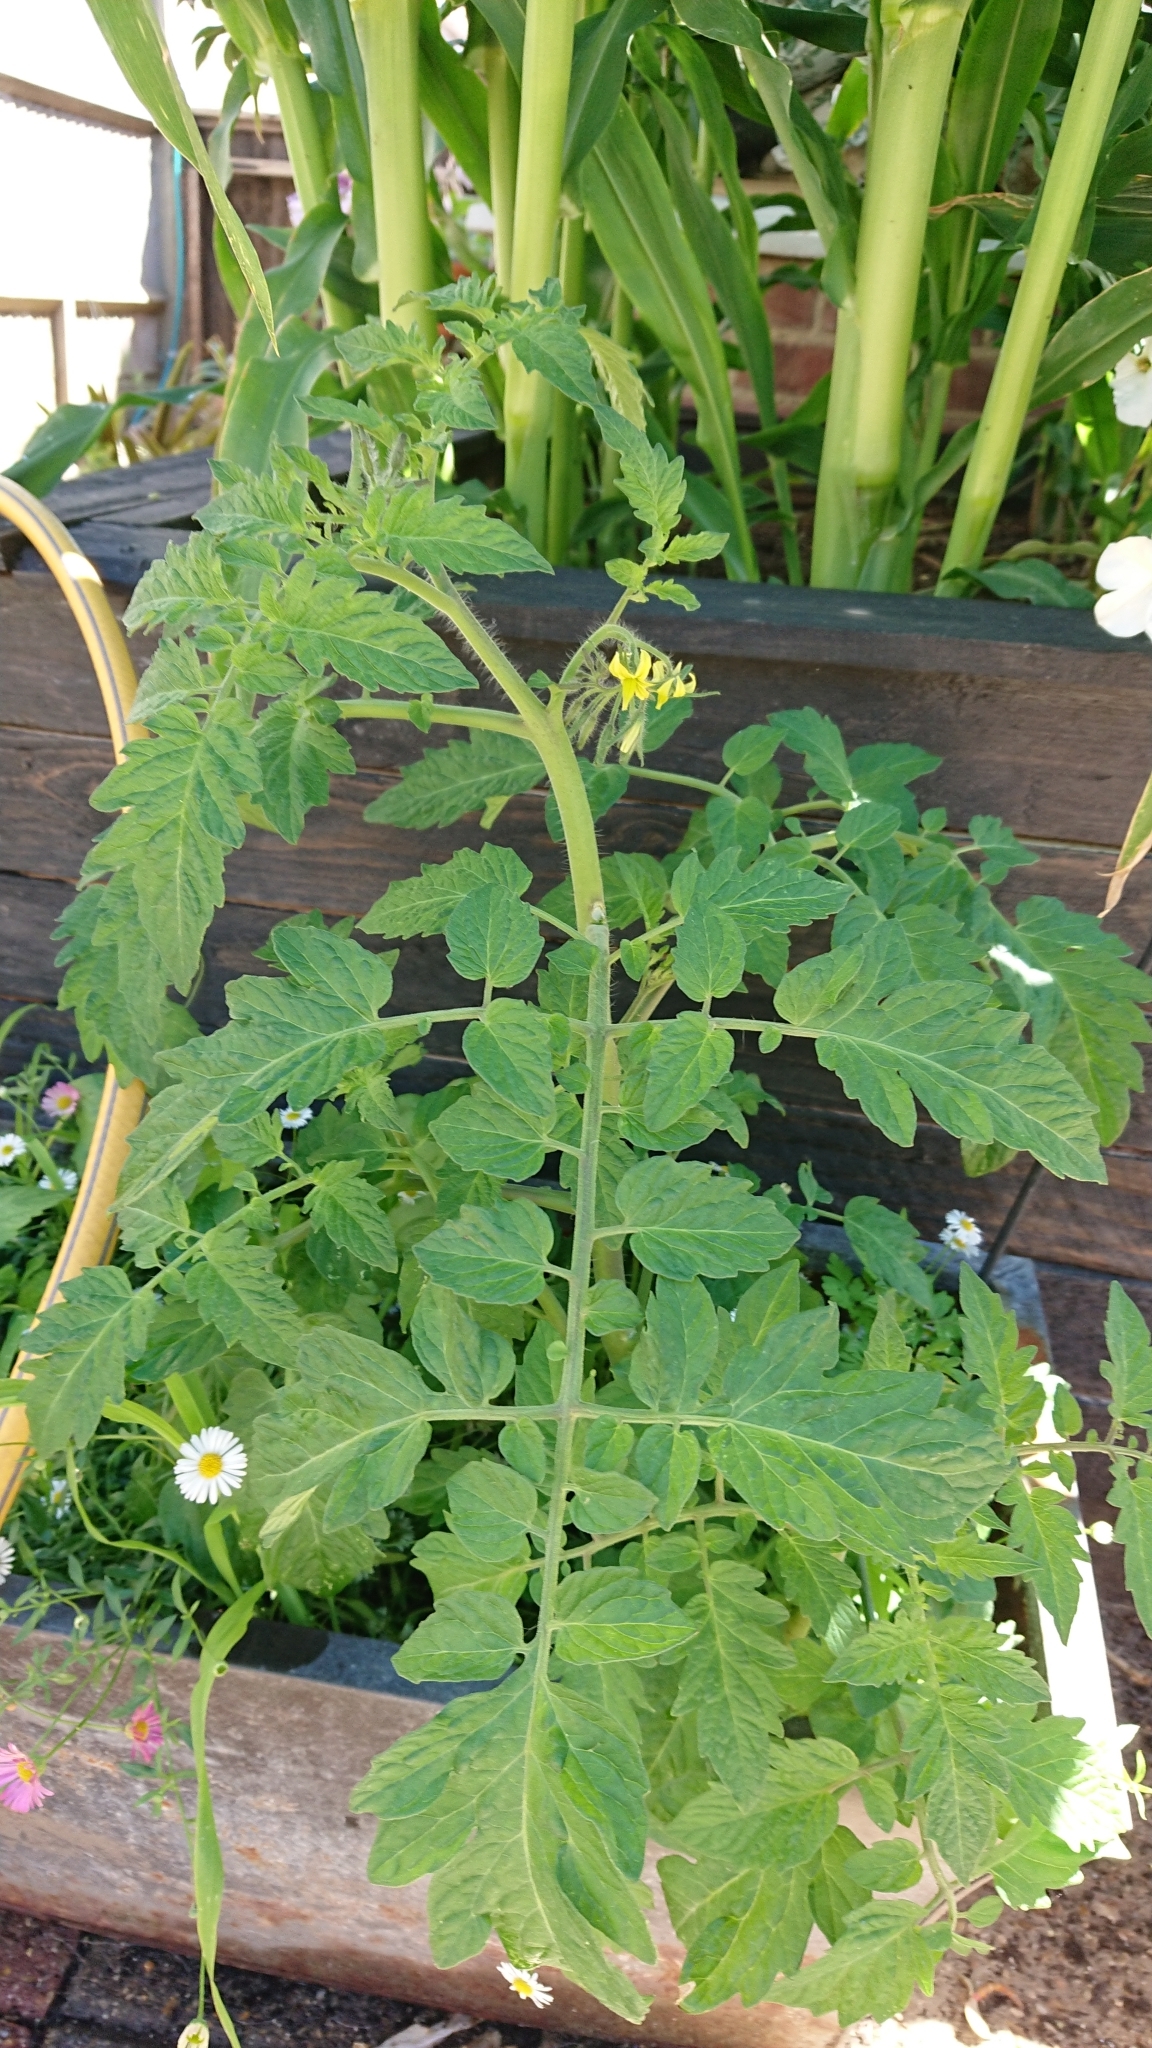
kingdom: Plantae
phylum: Tracheophyta
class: Magnoliopsida
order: Solanales
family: Solanaceae
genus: Solanum
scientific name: Solanum lycopersicum
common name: Garden tomato
